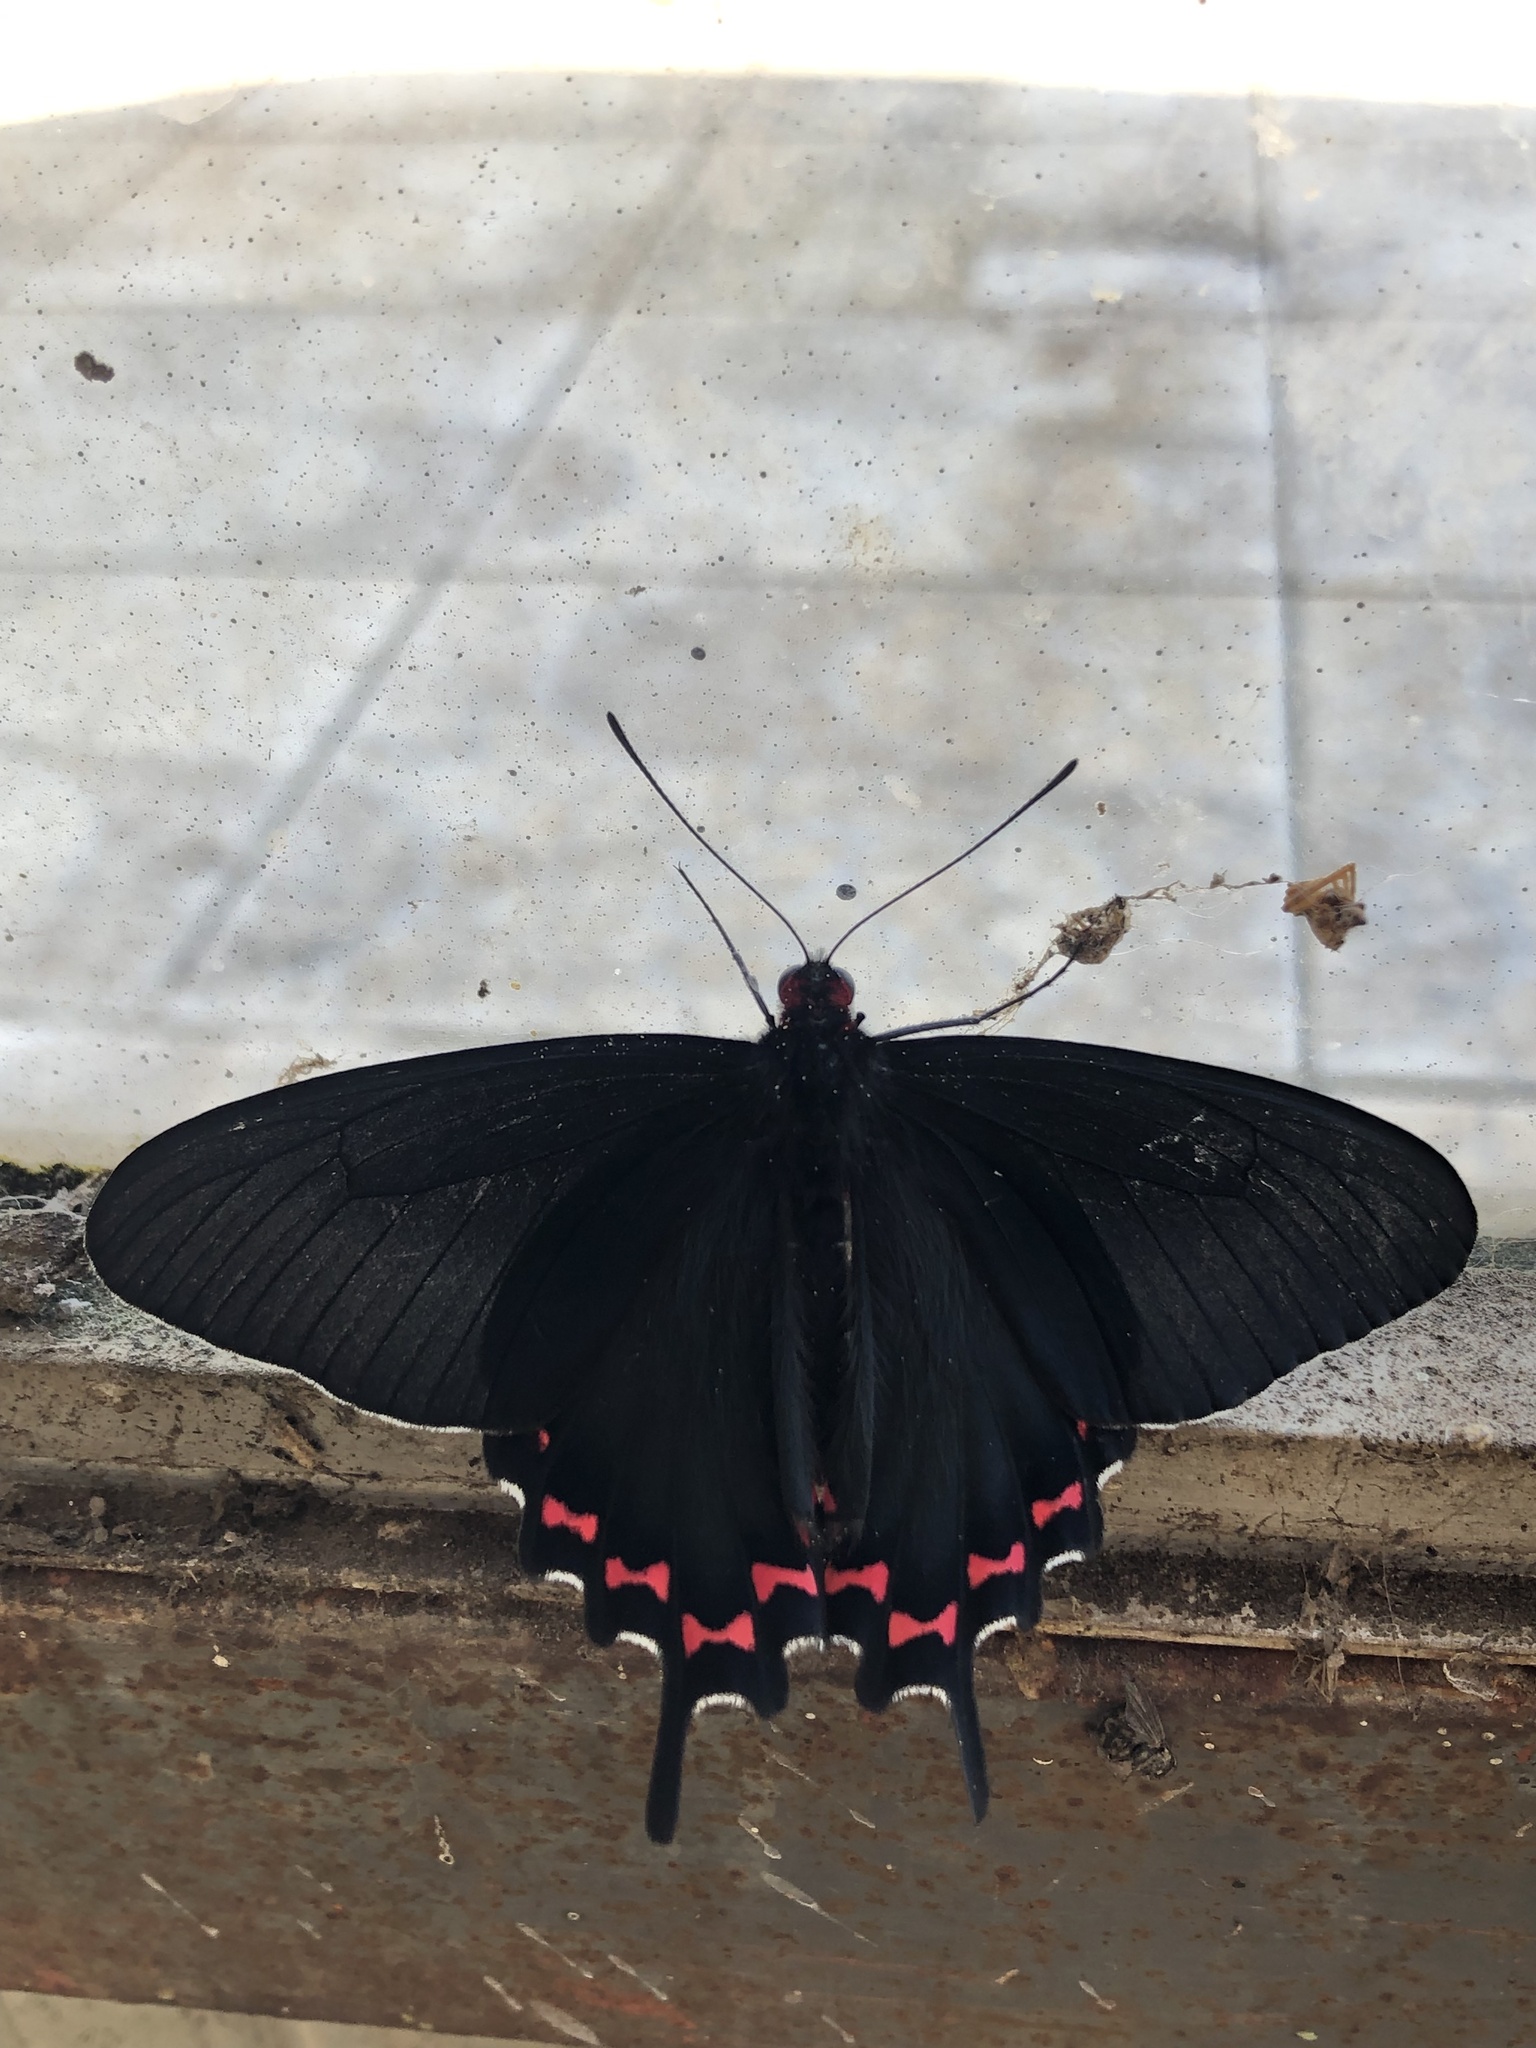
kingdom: Animalia
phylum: Arthropoda
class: Insecta
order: Lepidoptera
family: Papilionidae
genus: Parides
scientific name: Parides bunichus
